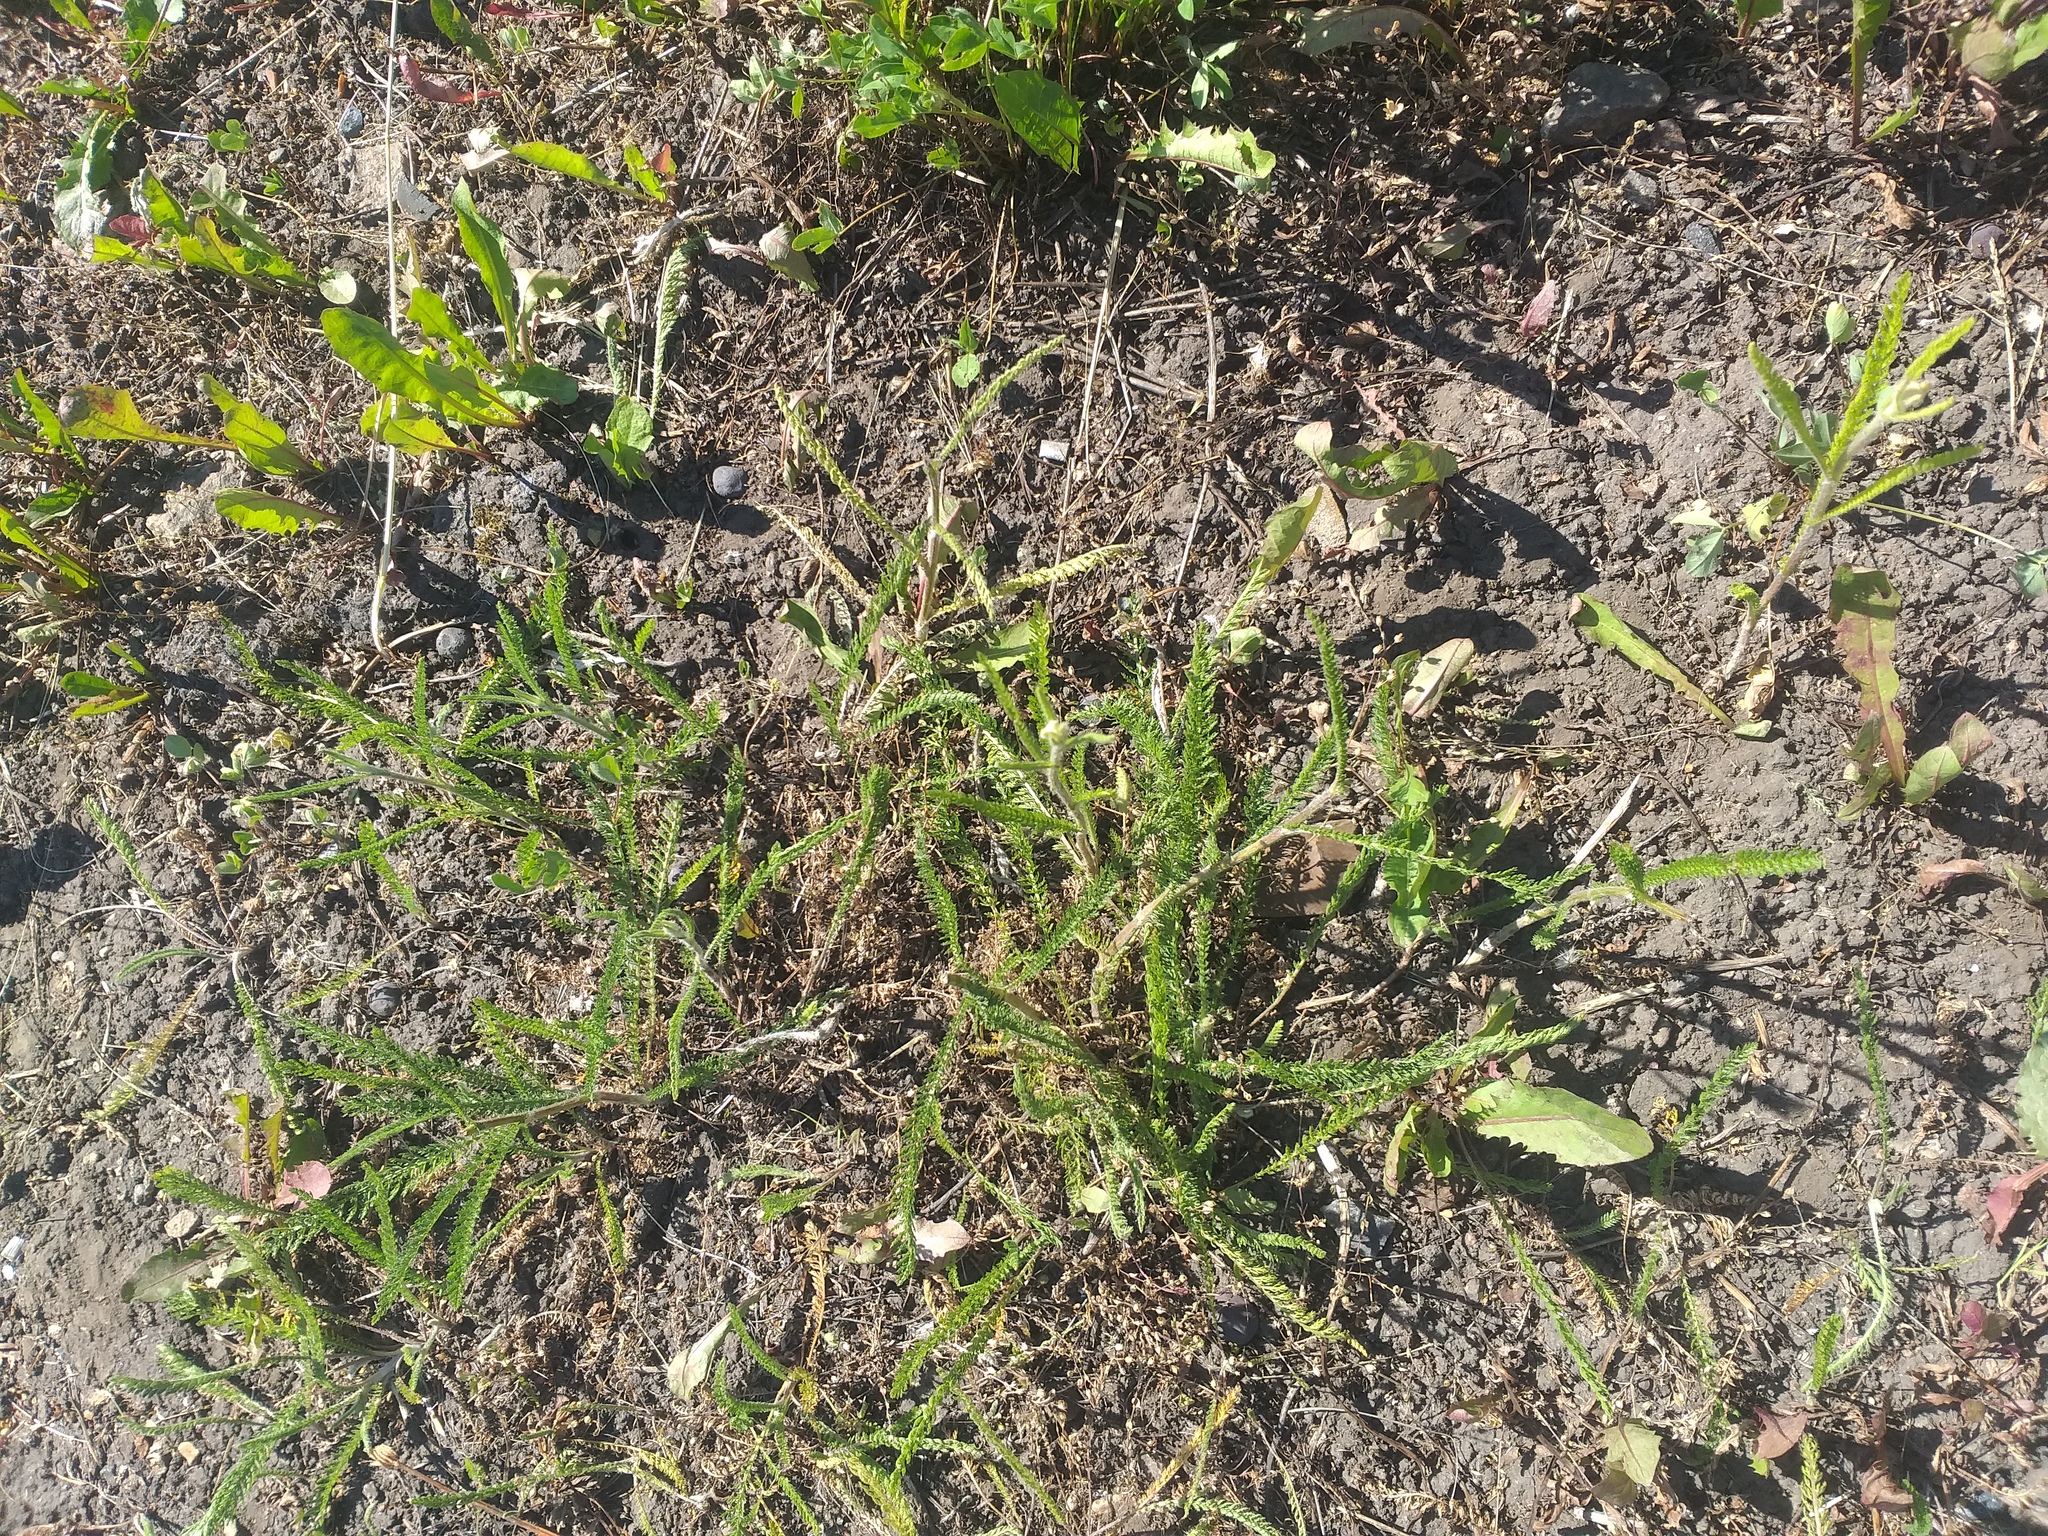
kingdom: Plantae
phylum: Tracheophyta
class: Magnoliopsida
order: Asterales
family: Asteraceae
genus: Achillea
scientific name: Achillea millefolium
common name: Yarrow
